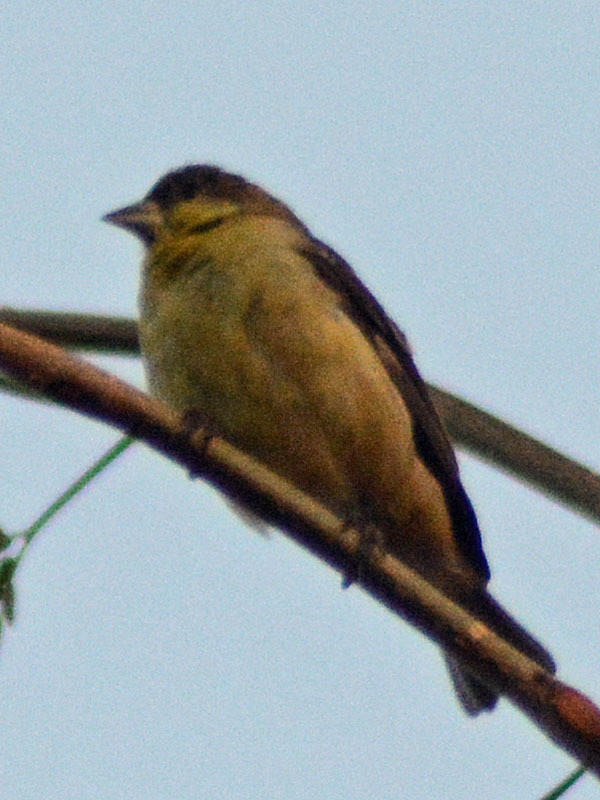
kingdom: Animalia
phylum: Chordata
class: Aves
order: Passeriformes
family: Fringillidae
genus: Spinus
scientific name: Spinus psaltria
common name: Lesser goldfinch
